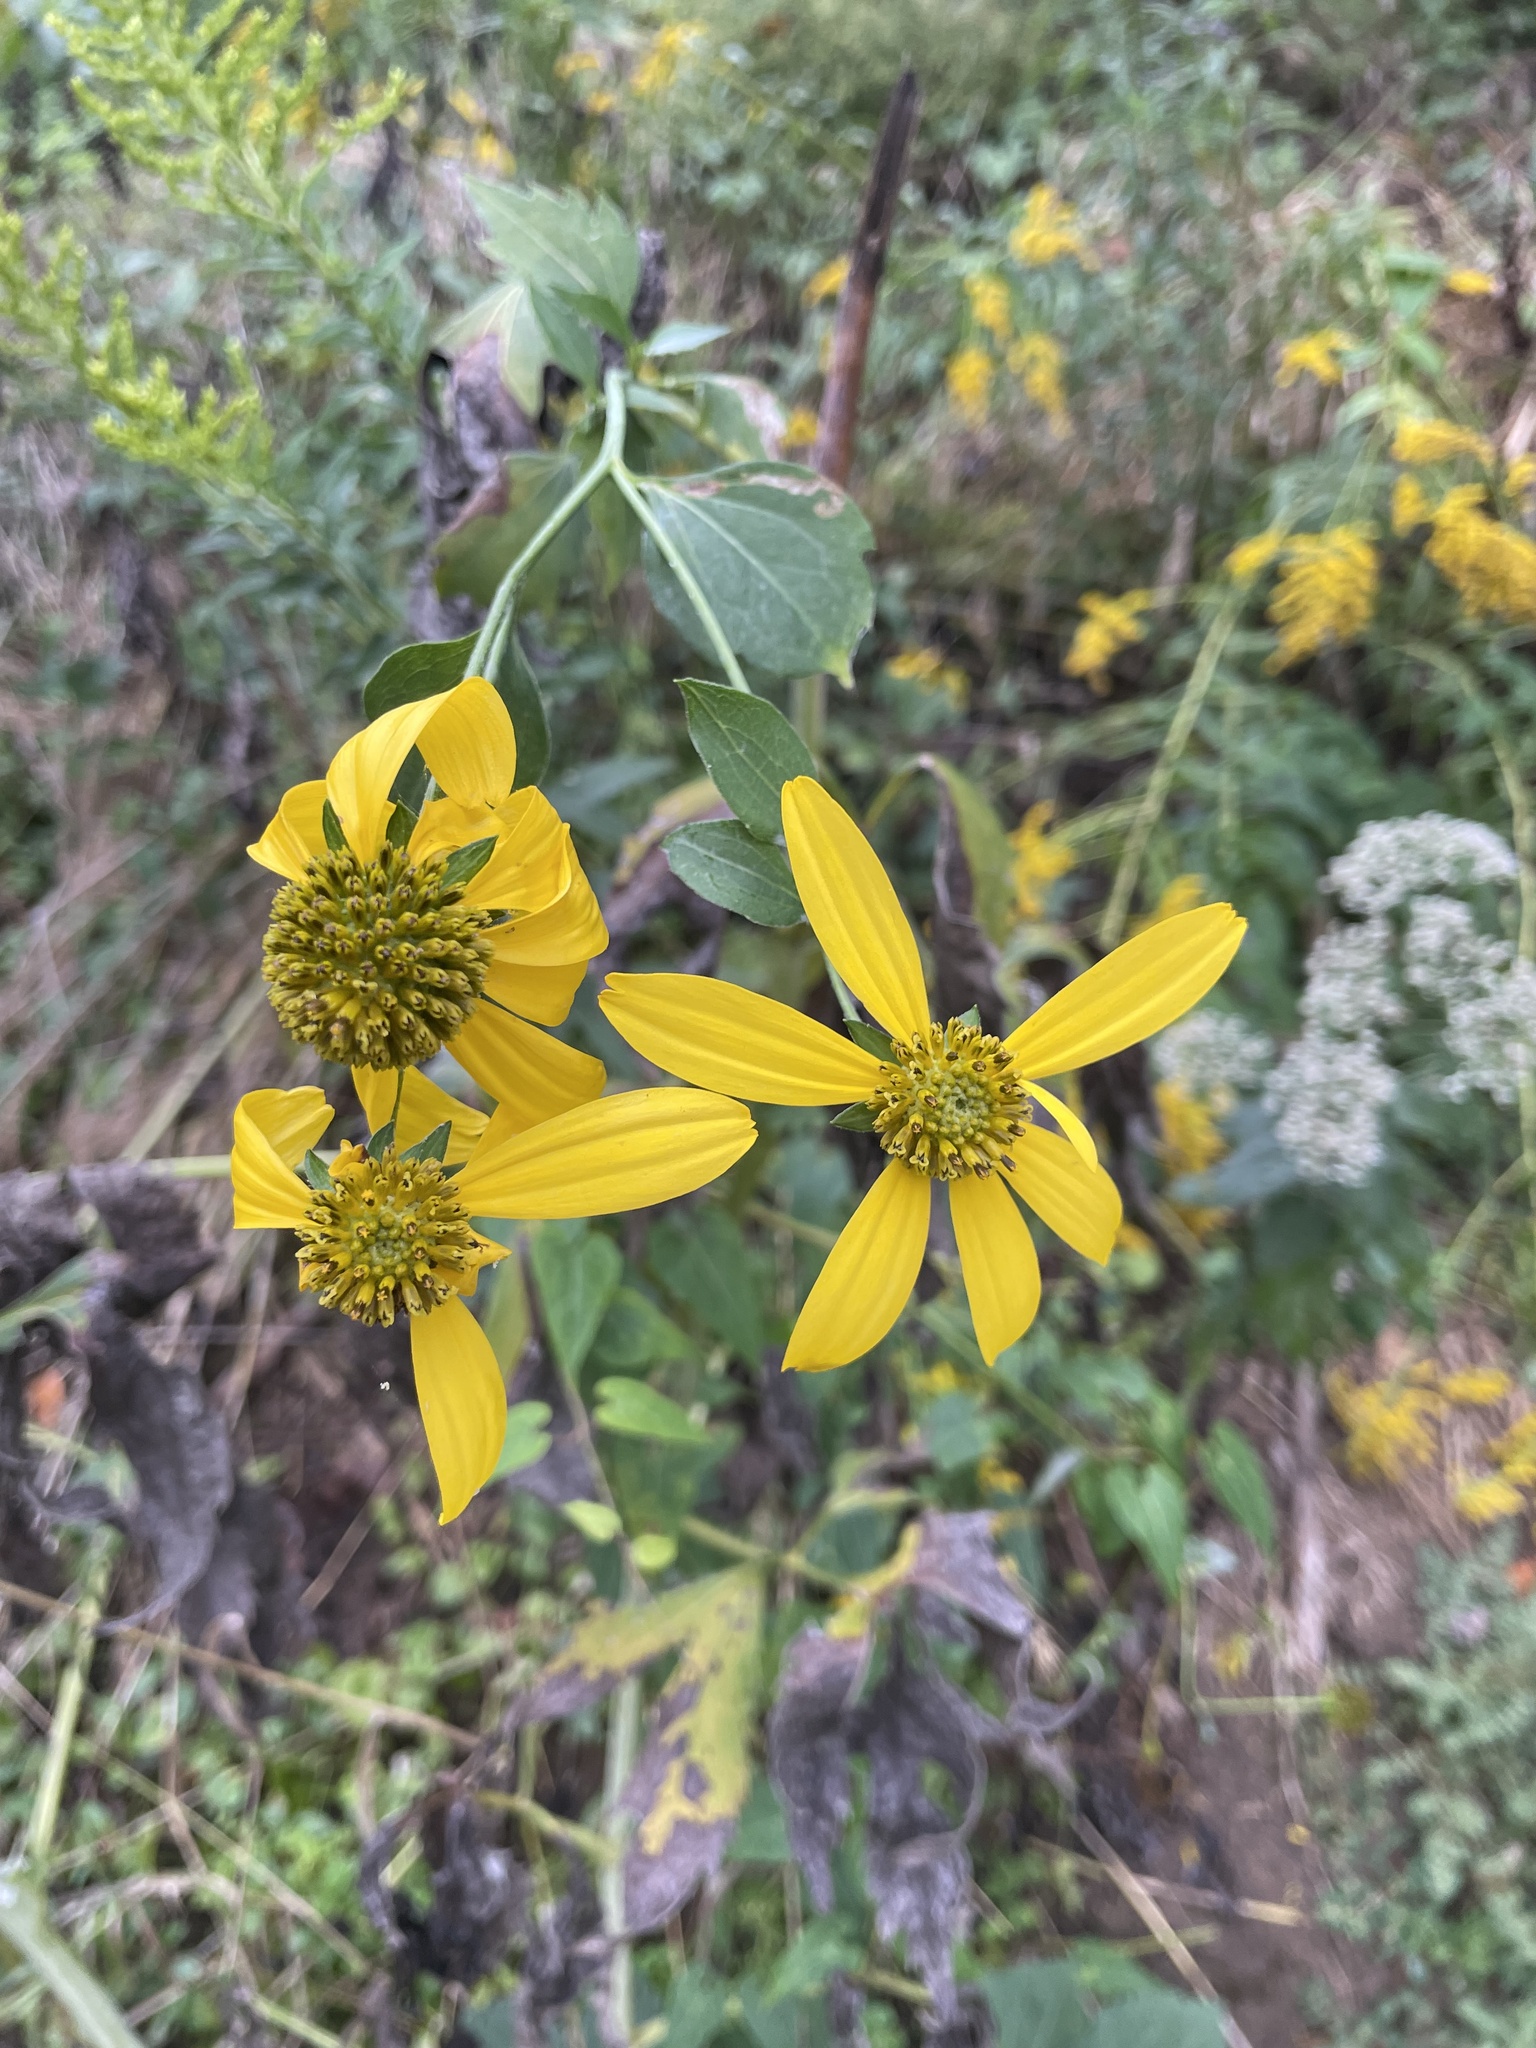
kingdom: Plantae
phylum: Tracheophyta
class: Magnoliopsida
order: Asterales
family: Asteraceae
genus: Rudbeckia
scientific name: Rudbeckia laciniata
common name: Coneflower
